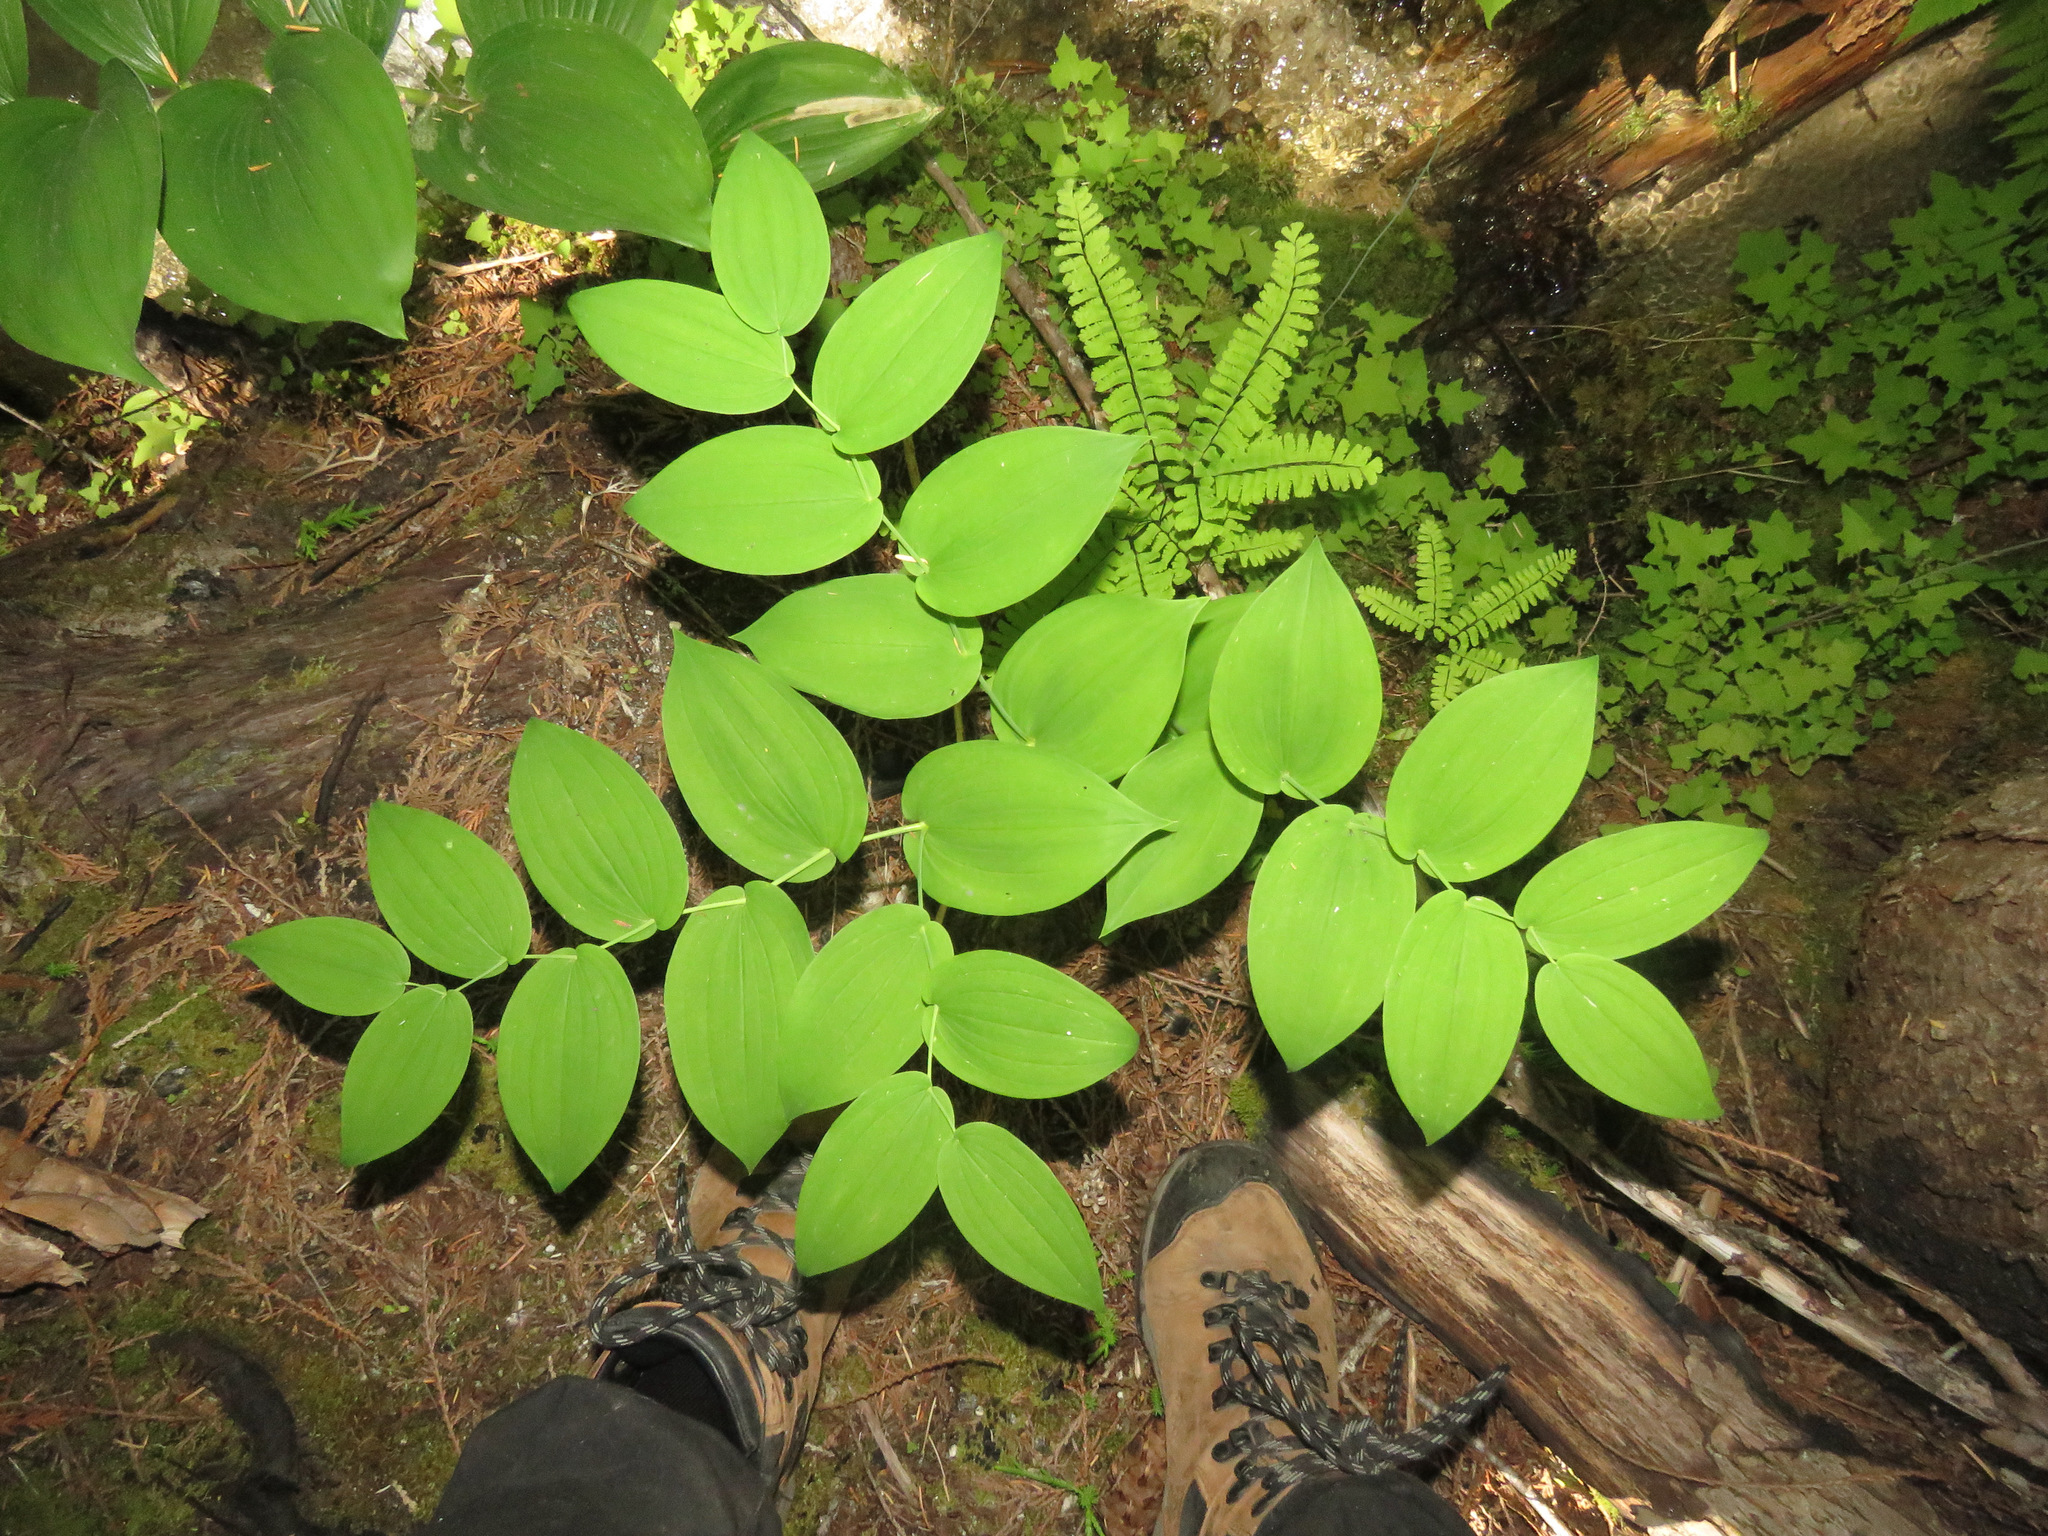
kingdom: Plantae
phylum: Tracheophyta
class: Liliopsida
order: Liliales
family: Liliaceae
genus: Streptopus
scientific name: Streptopus amplexifolius
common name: Clasp twisted stalk
